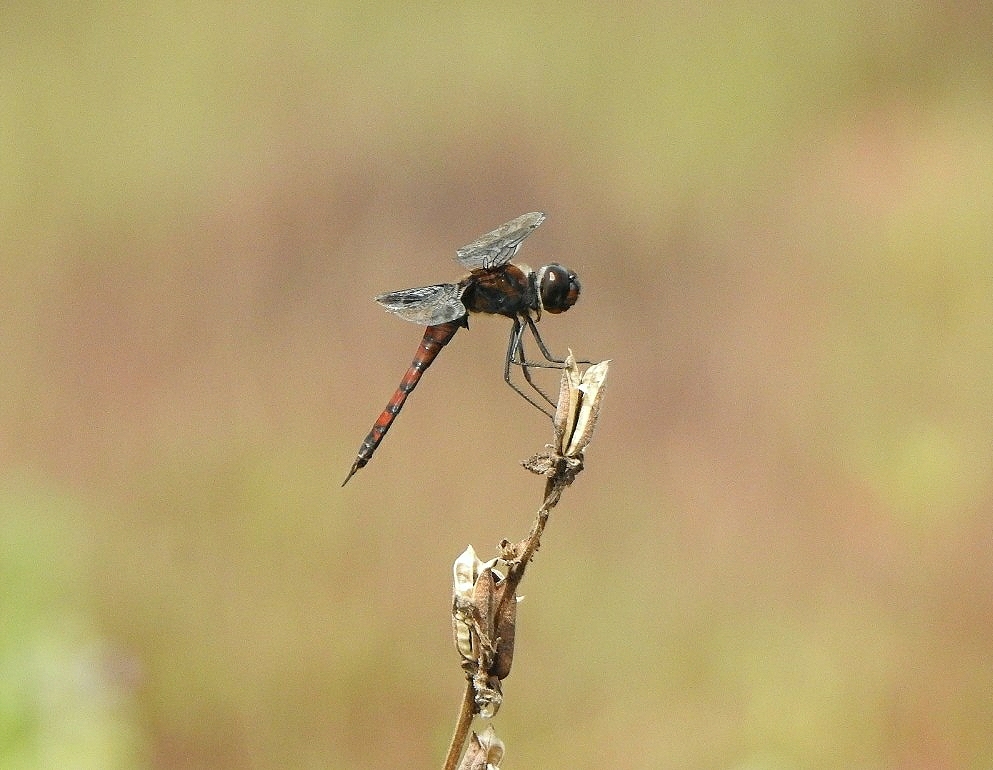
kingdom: Animalia
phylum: Arthropoda
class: Insecta
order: Odonata
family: Libellulidae
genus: Tramea
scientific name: Tramea limbata
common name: Ferruginous glider
